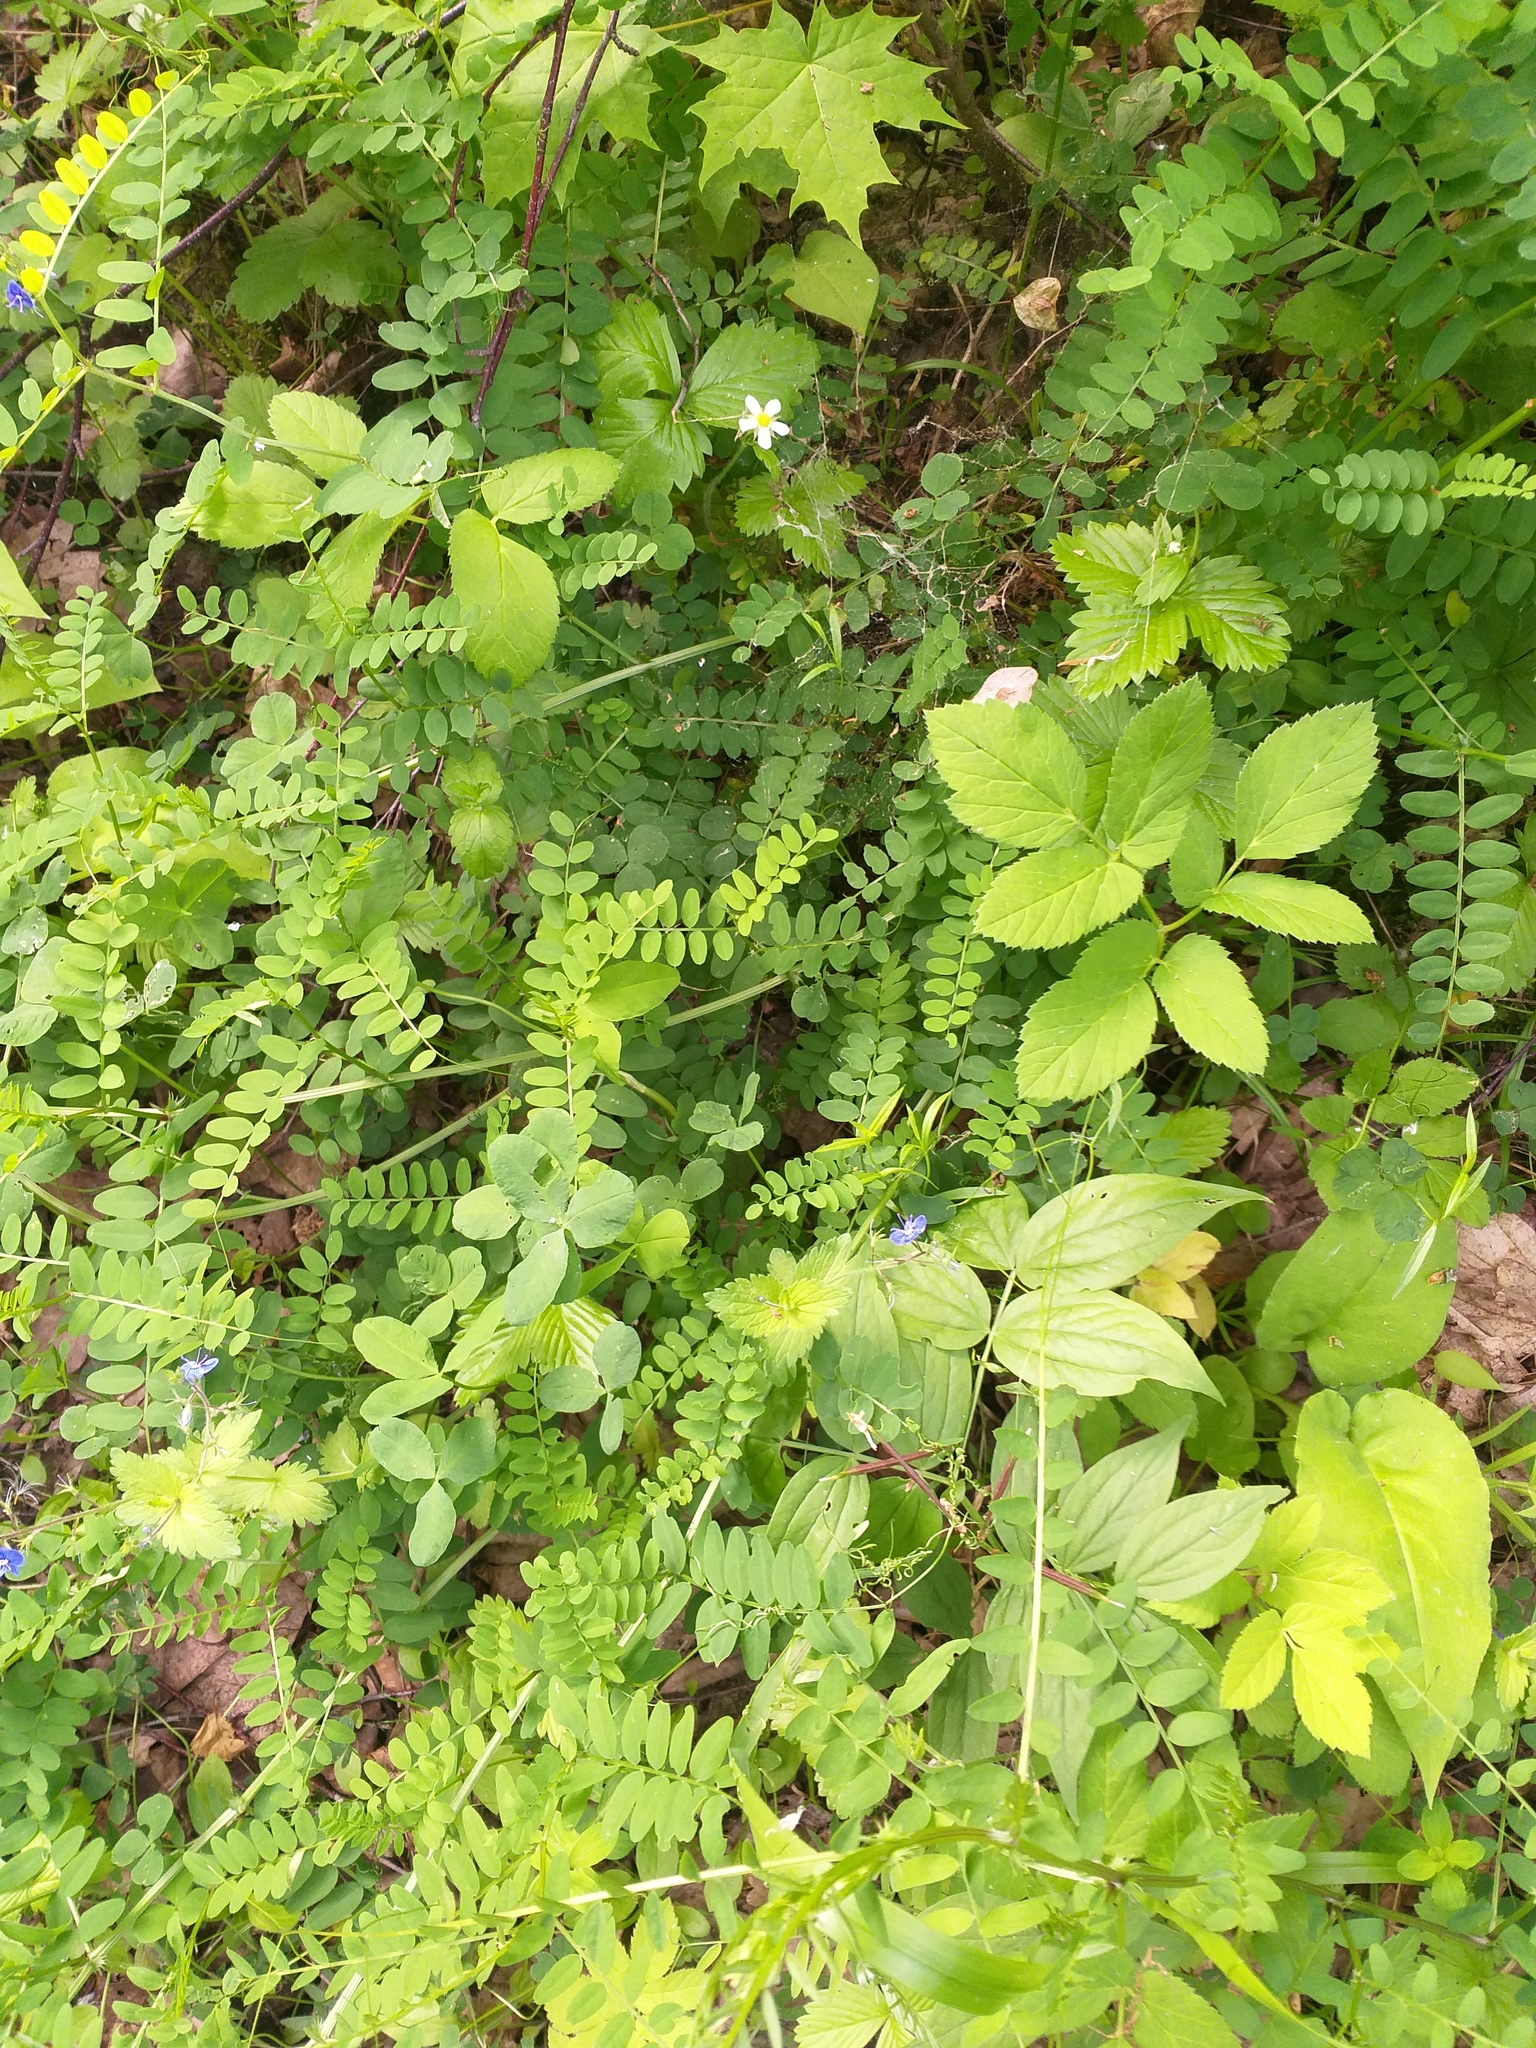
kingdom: Plantae
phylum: Tracheophyta
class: Magnoliopsida
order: Fabales
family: Fabaceae
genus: Vicia
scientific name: Vicia sylvatica
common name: Wood vetch
